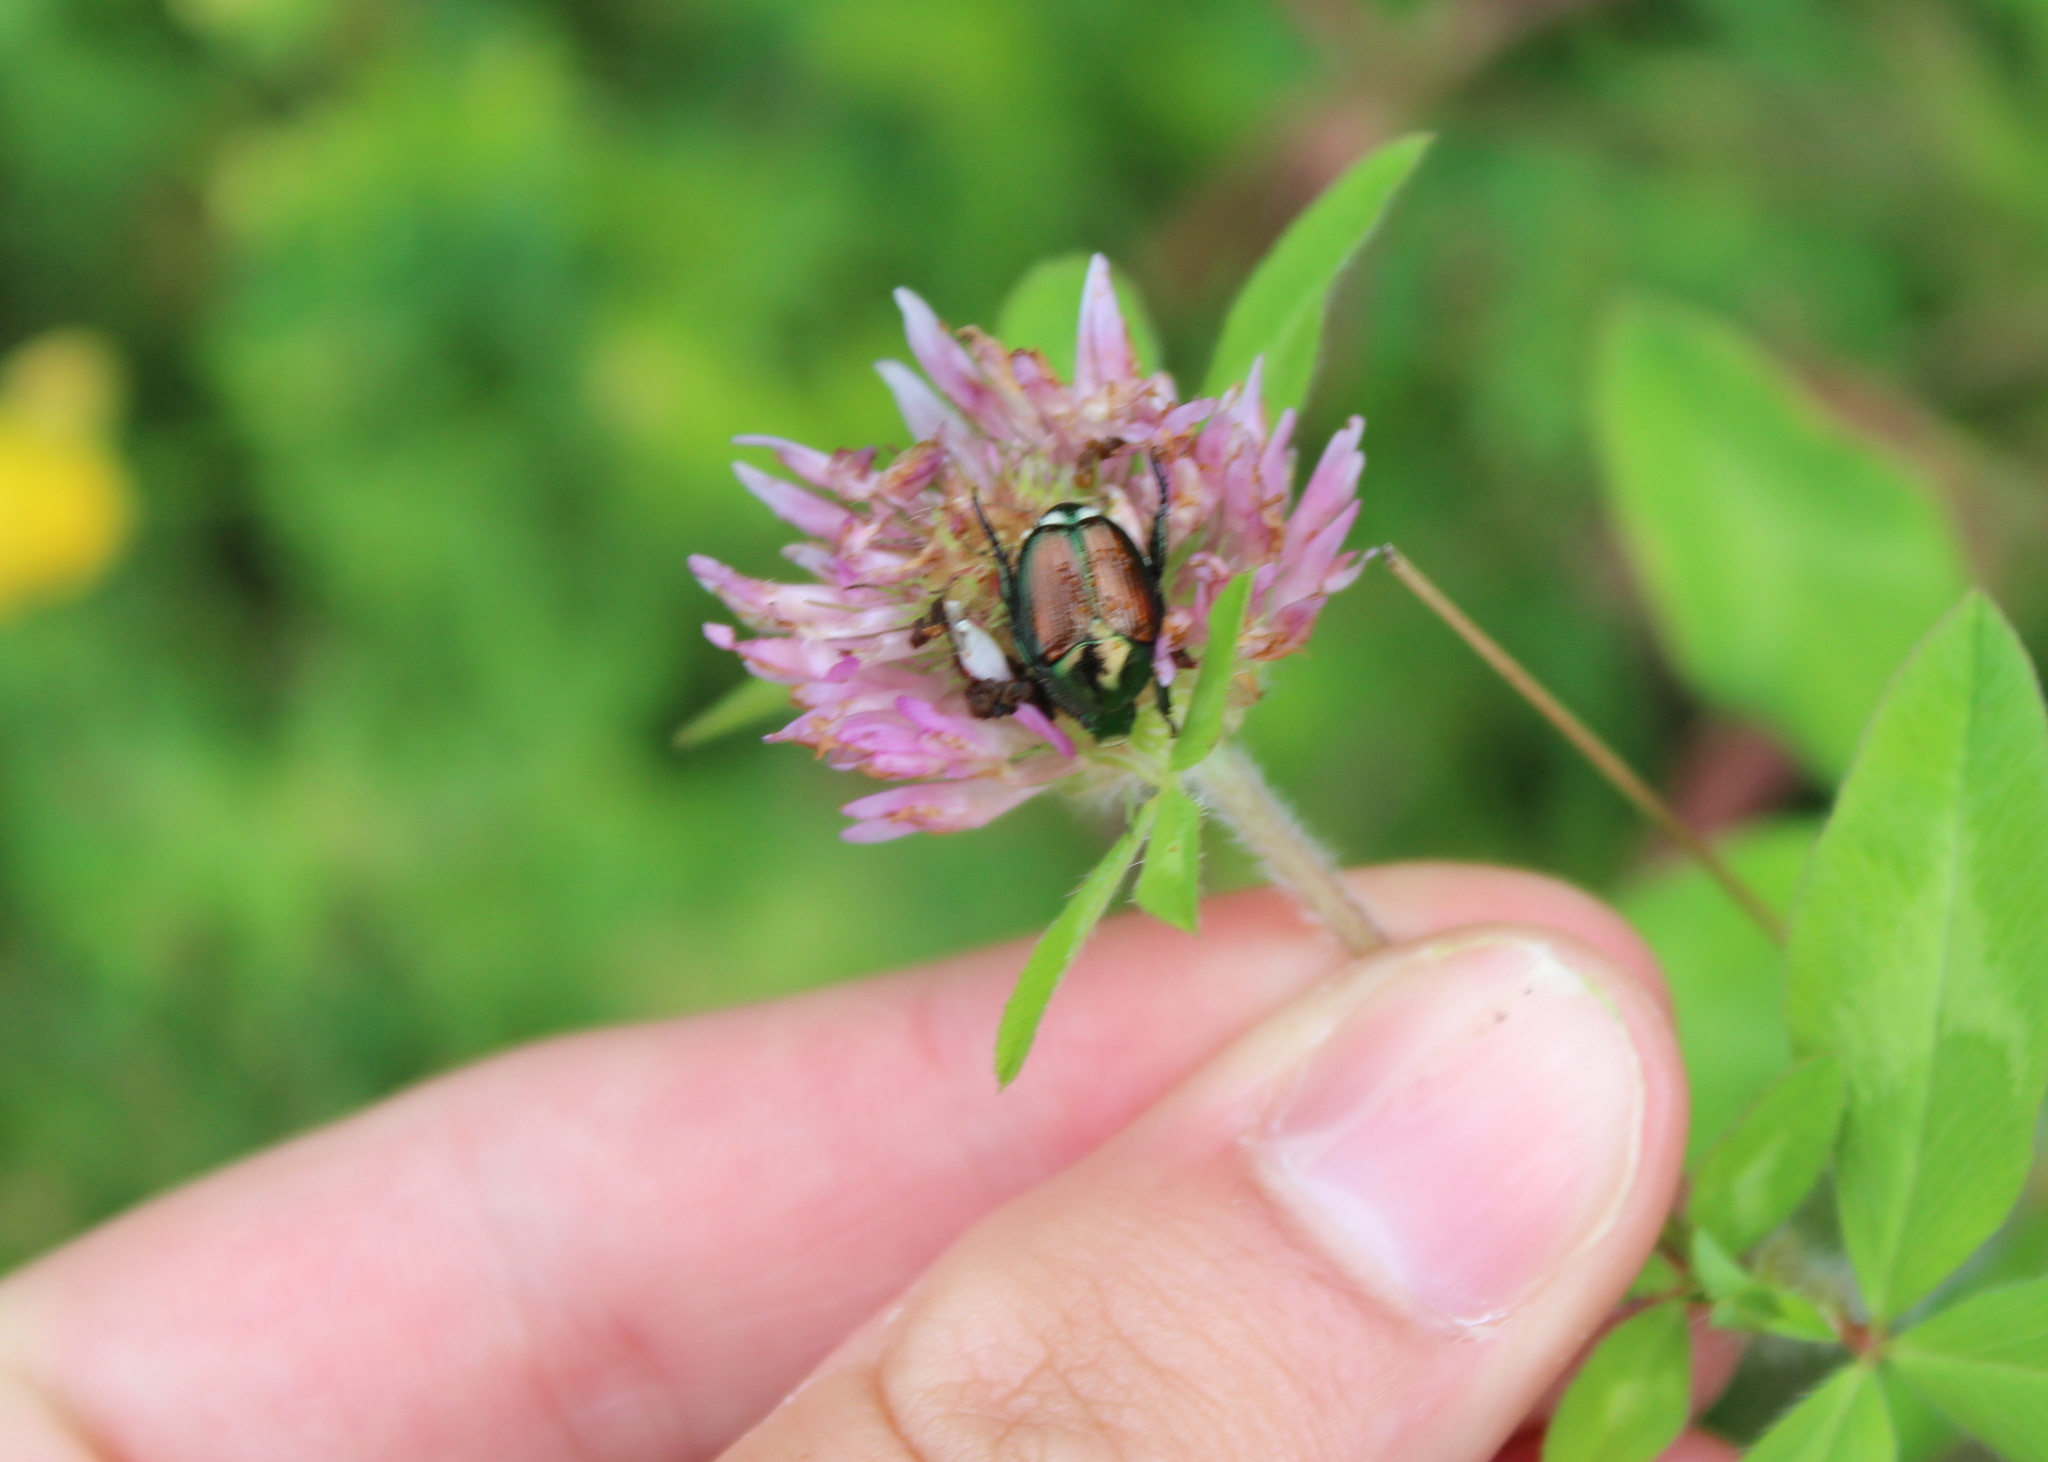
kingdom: Animalia
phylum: Arthropoda
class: Insecta
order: Coleoptera
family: Scarabaeidae
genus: Popillia
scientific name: Popillia japonica
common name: Japanese beetle
